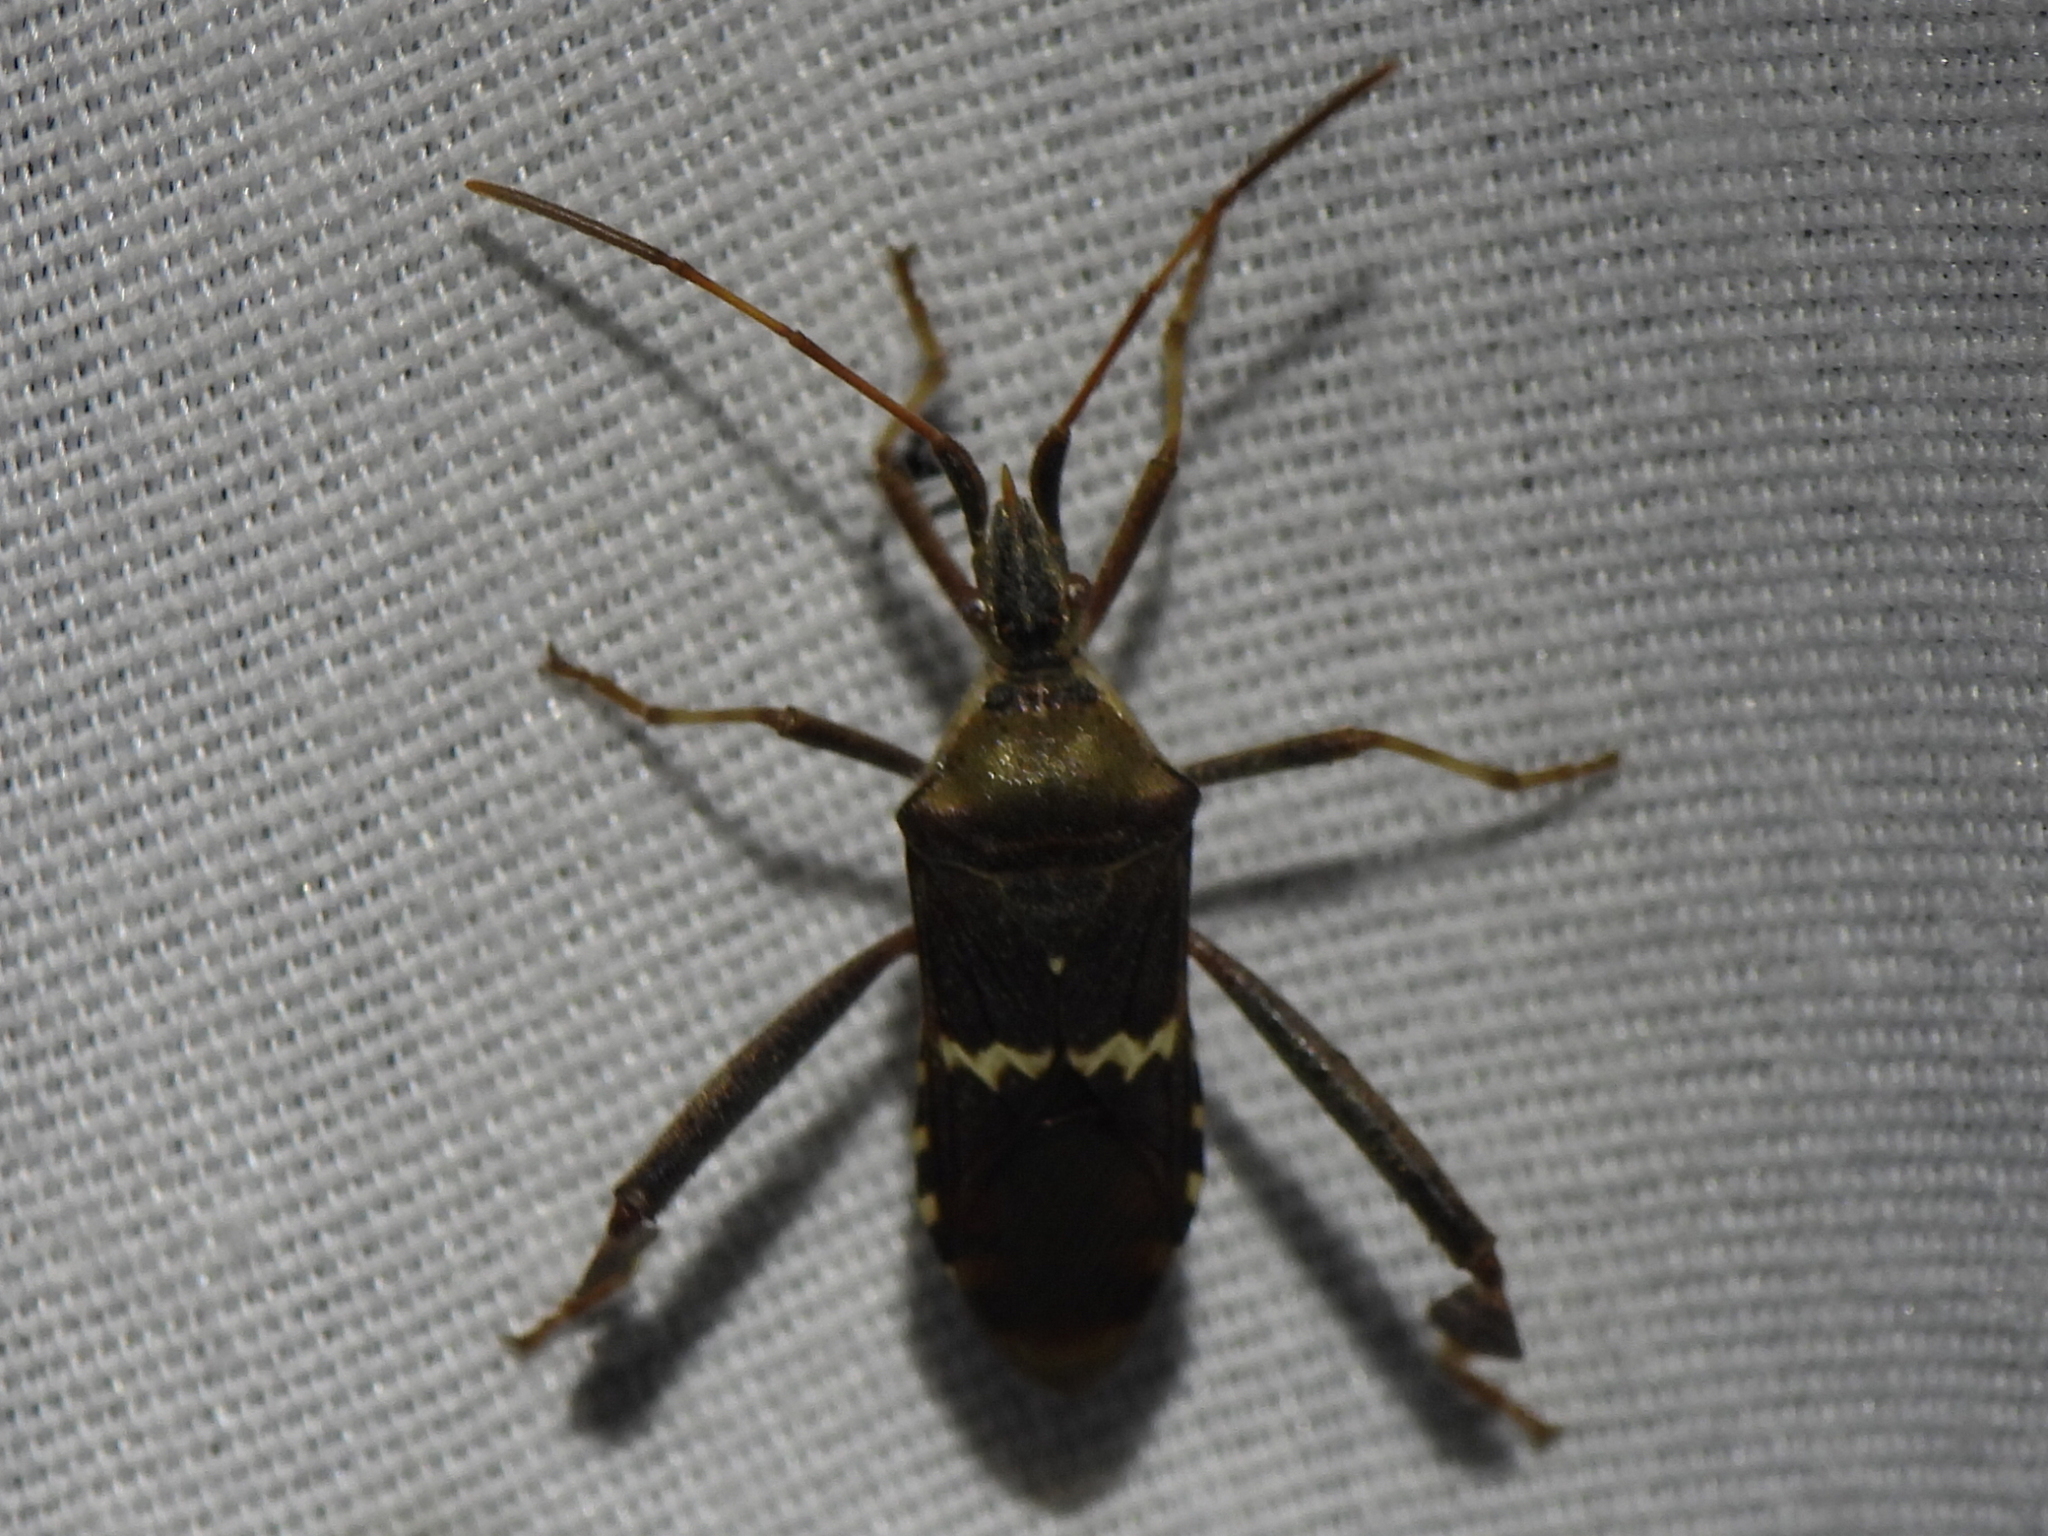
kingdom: Animalia
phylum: Arthropoda
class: Insecta
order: Hemiptera
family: Coreidae
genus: Leptoglossus
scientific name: Leptoglossus clypealis
